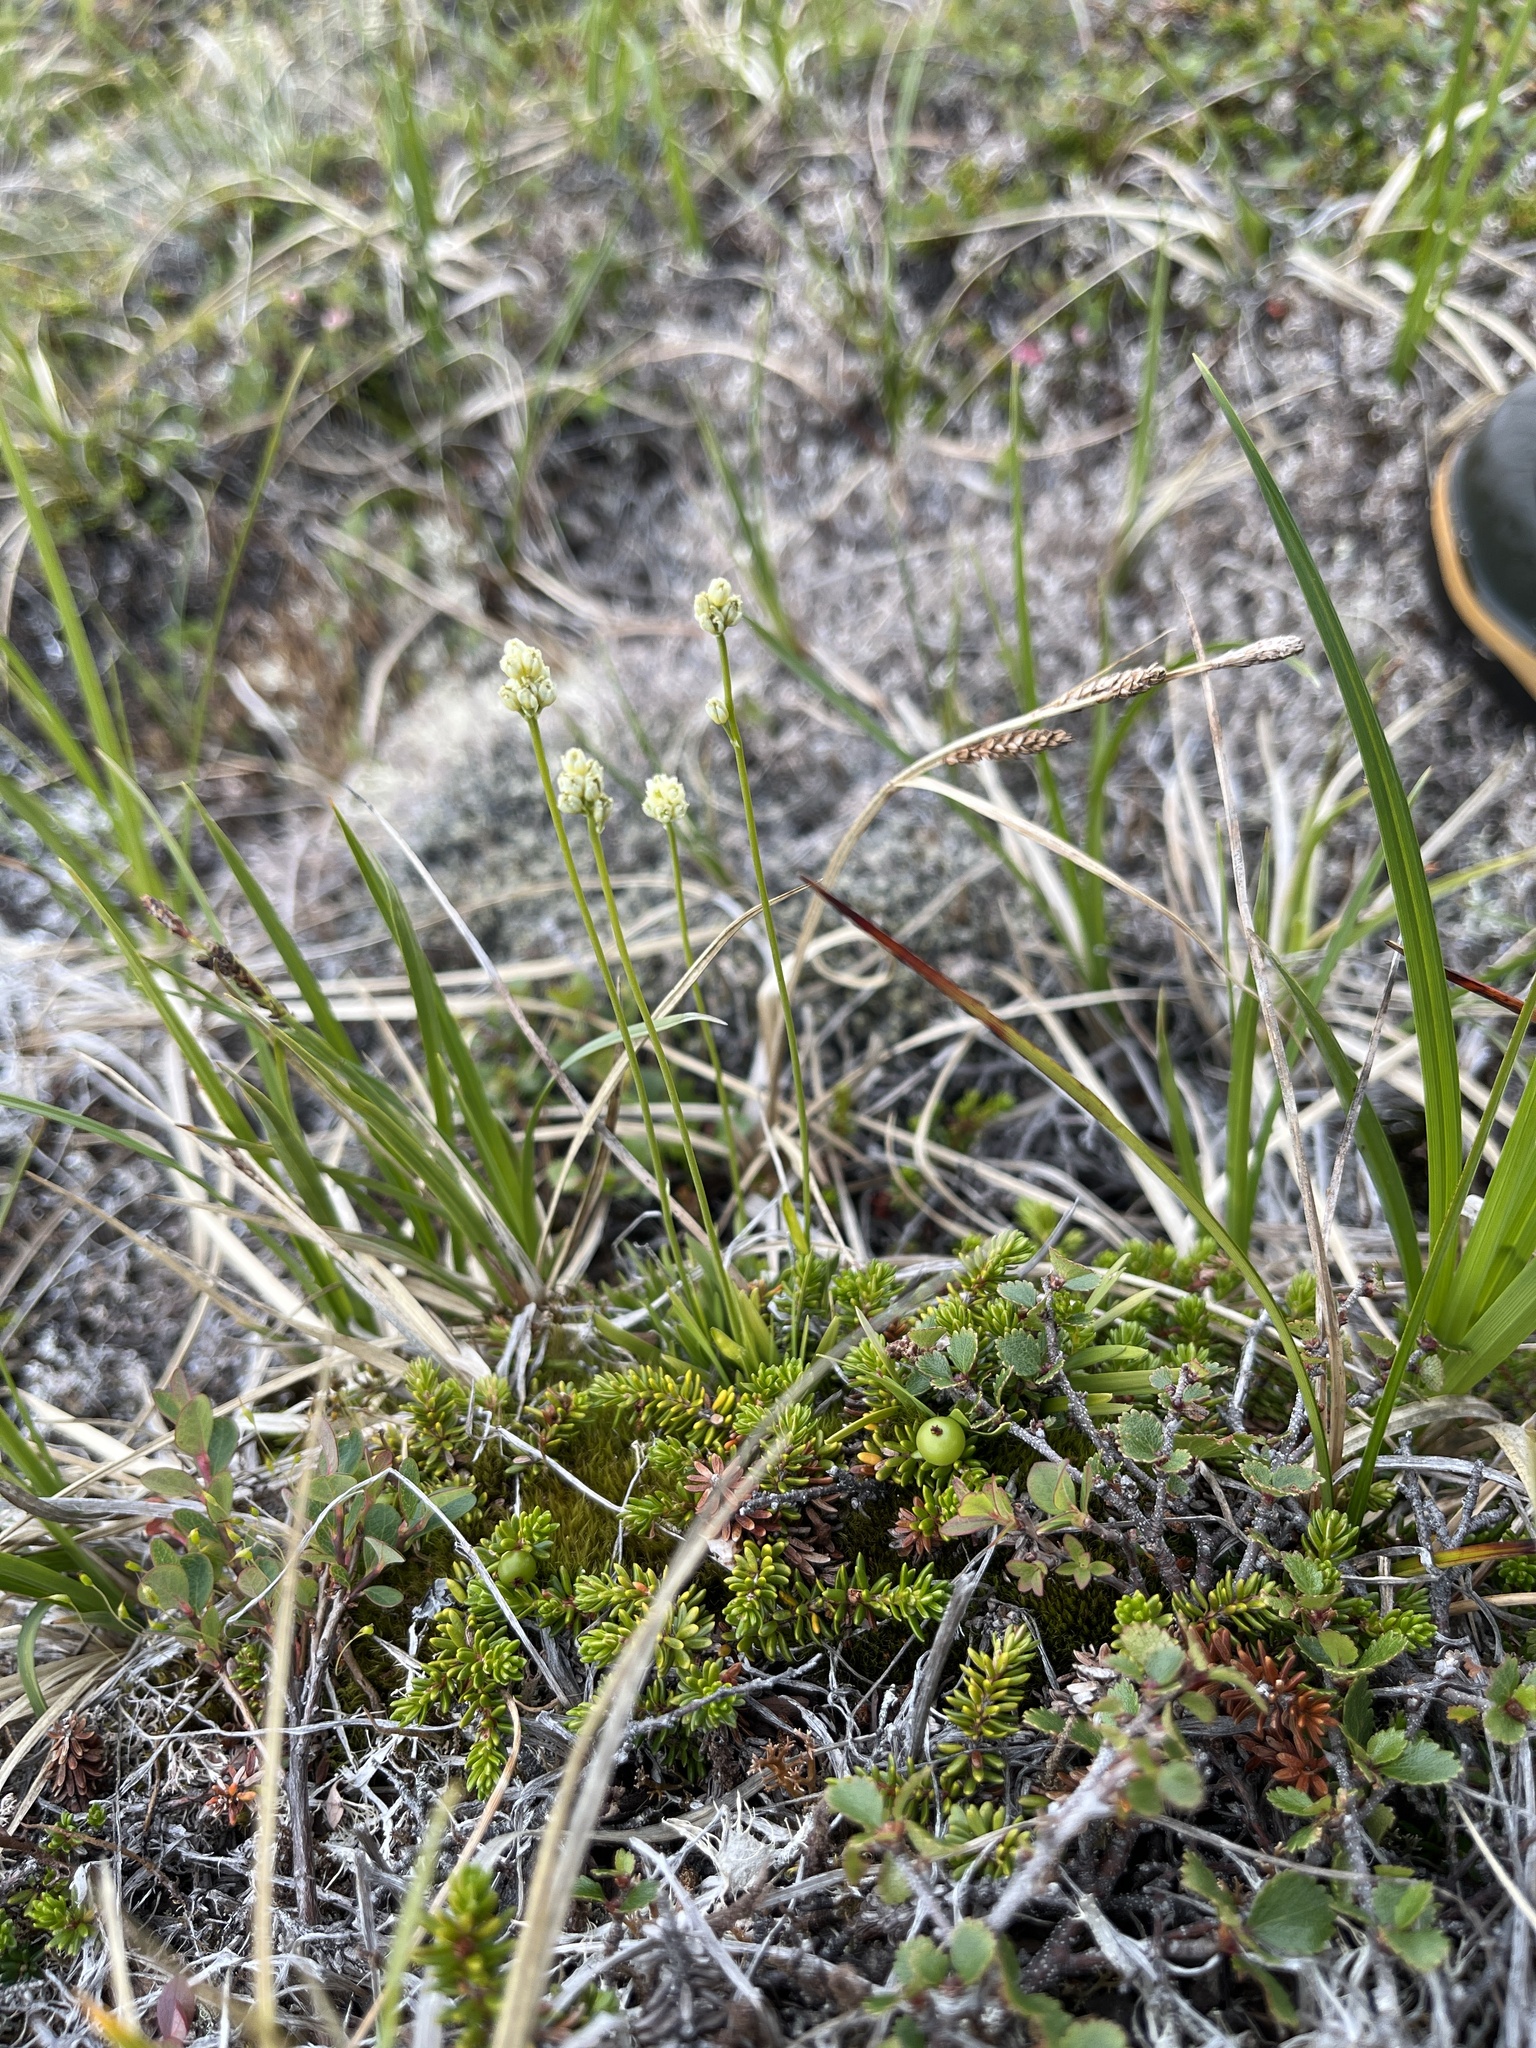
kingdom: Plantae
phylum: Tracheophyta
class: Liliopsida
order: Alismatales
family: Tofieldiaceae
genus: Tofieldia
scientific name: Tofieldia pusilla
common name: Scottish false asphodel
